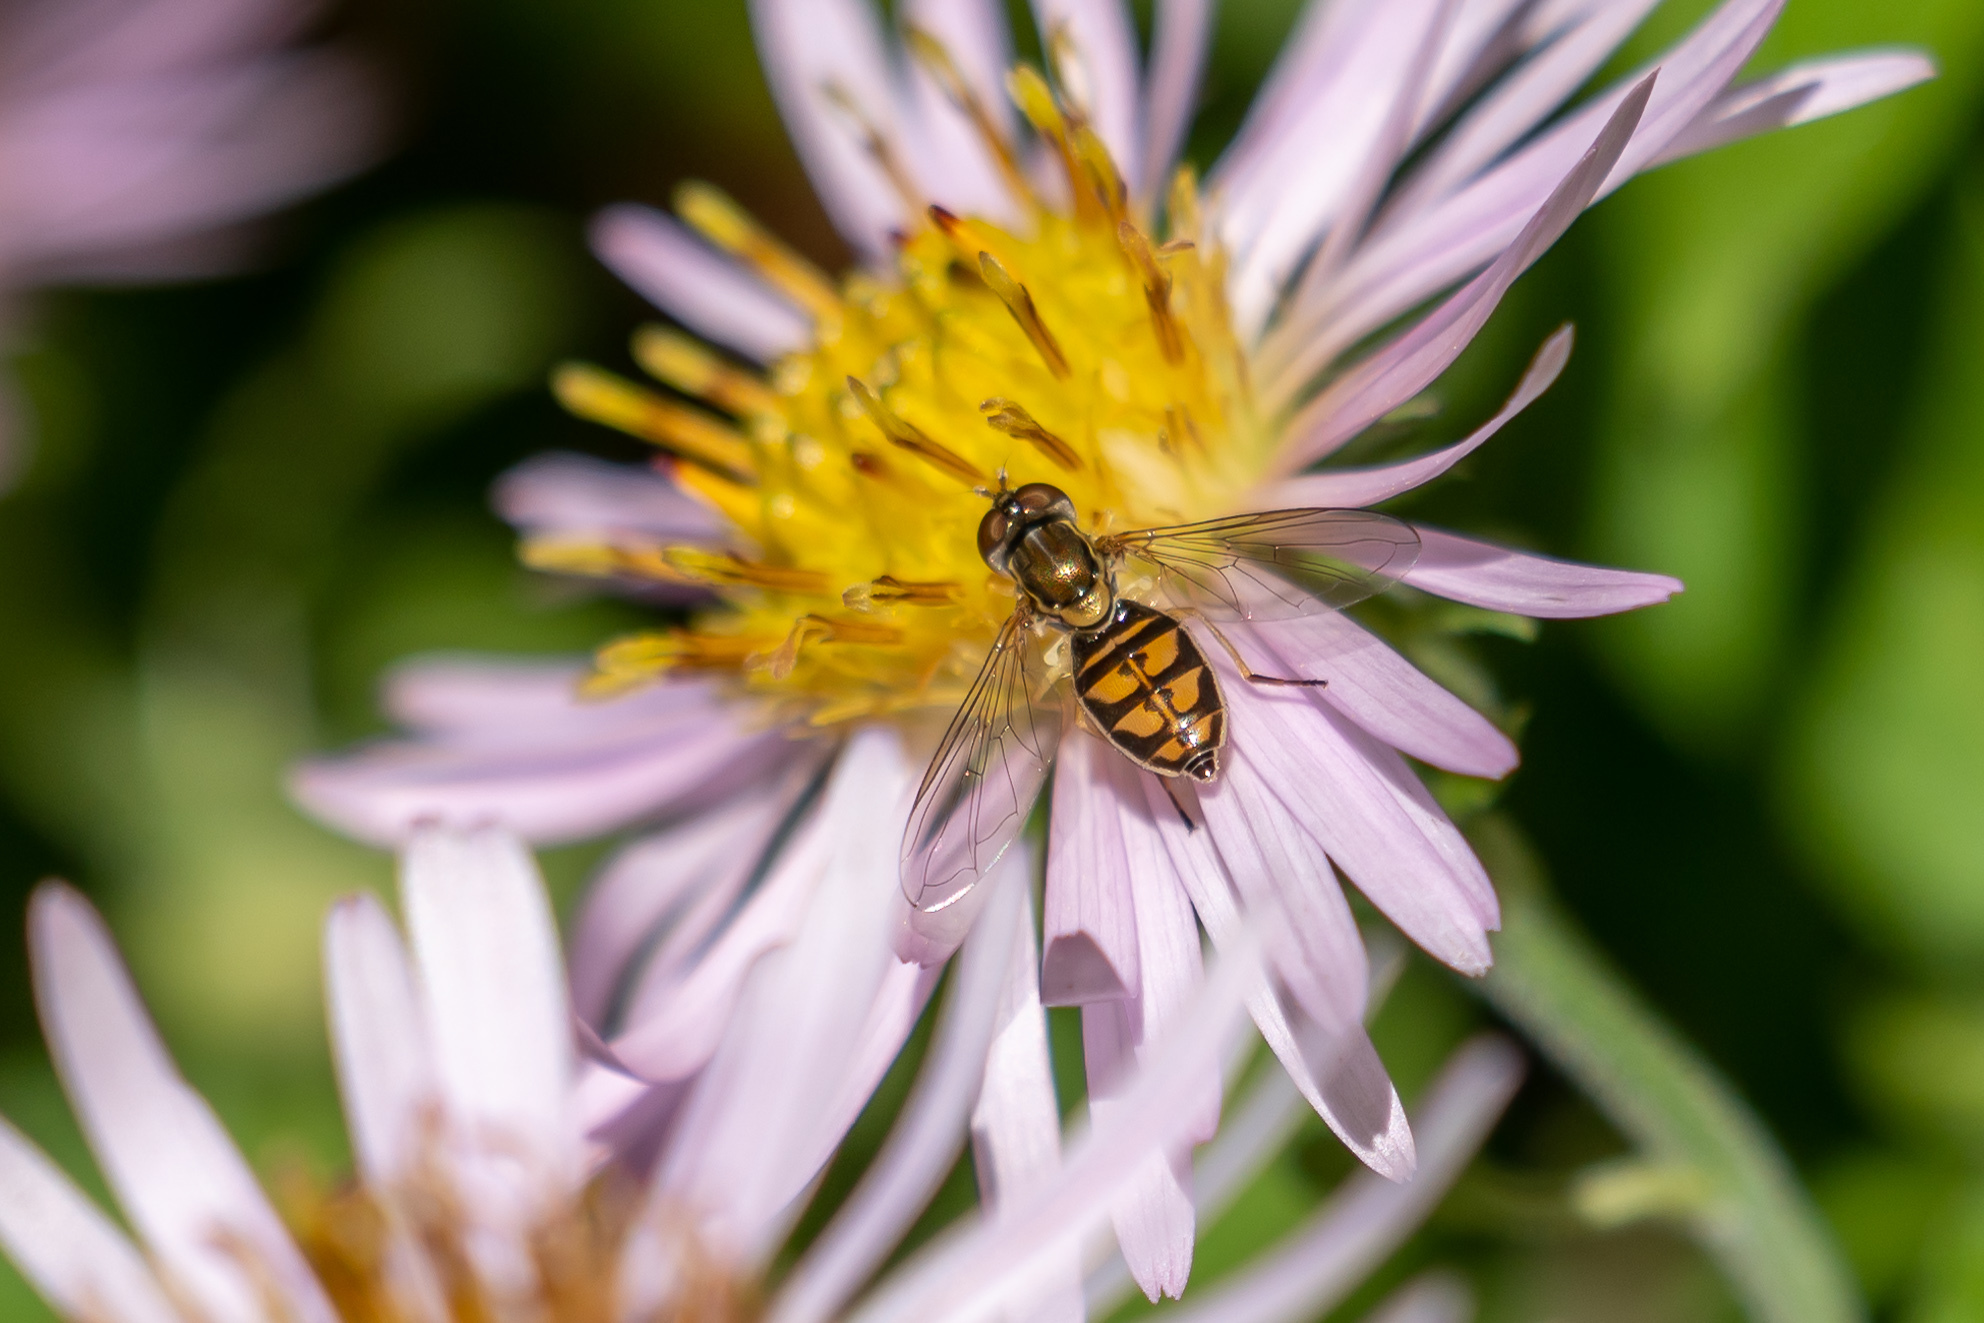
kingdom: Animalia
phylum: Arthropoda
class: Insecta
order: Diptera
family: Syrphidae
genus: Toxomerus
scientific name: Toxomerus marginatus
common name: Syrphid fly
